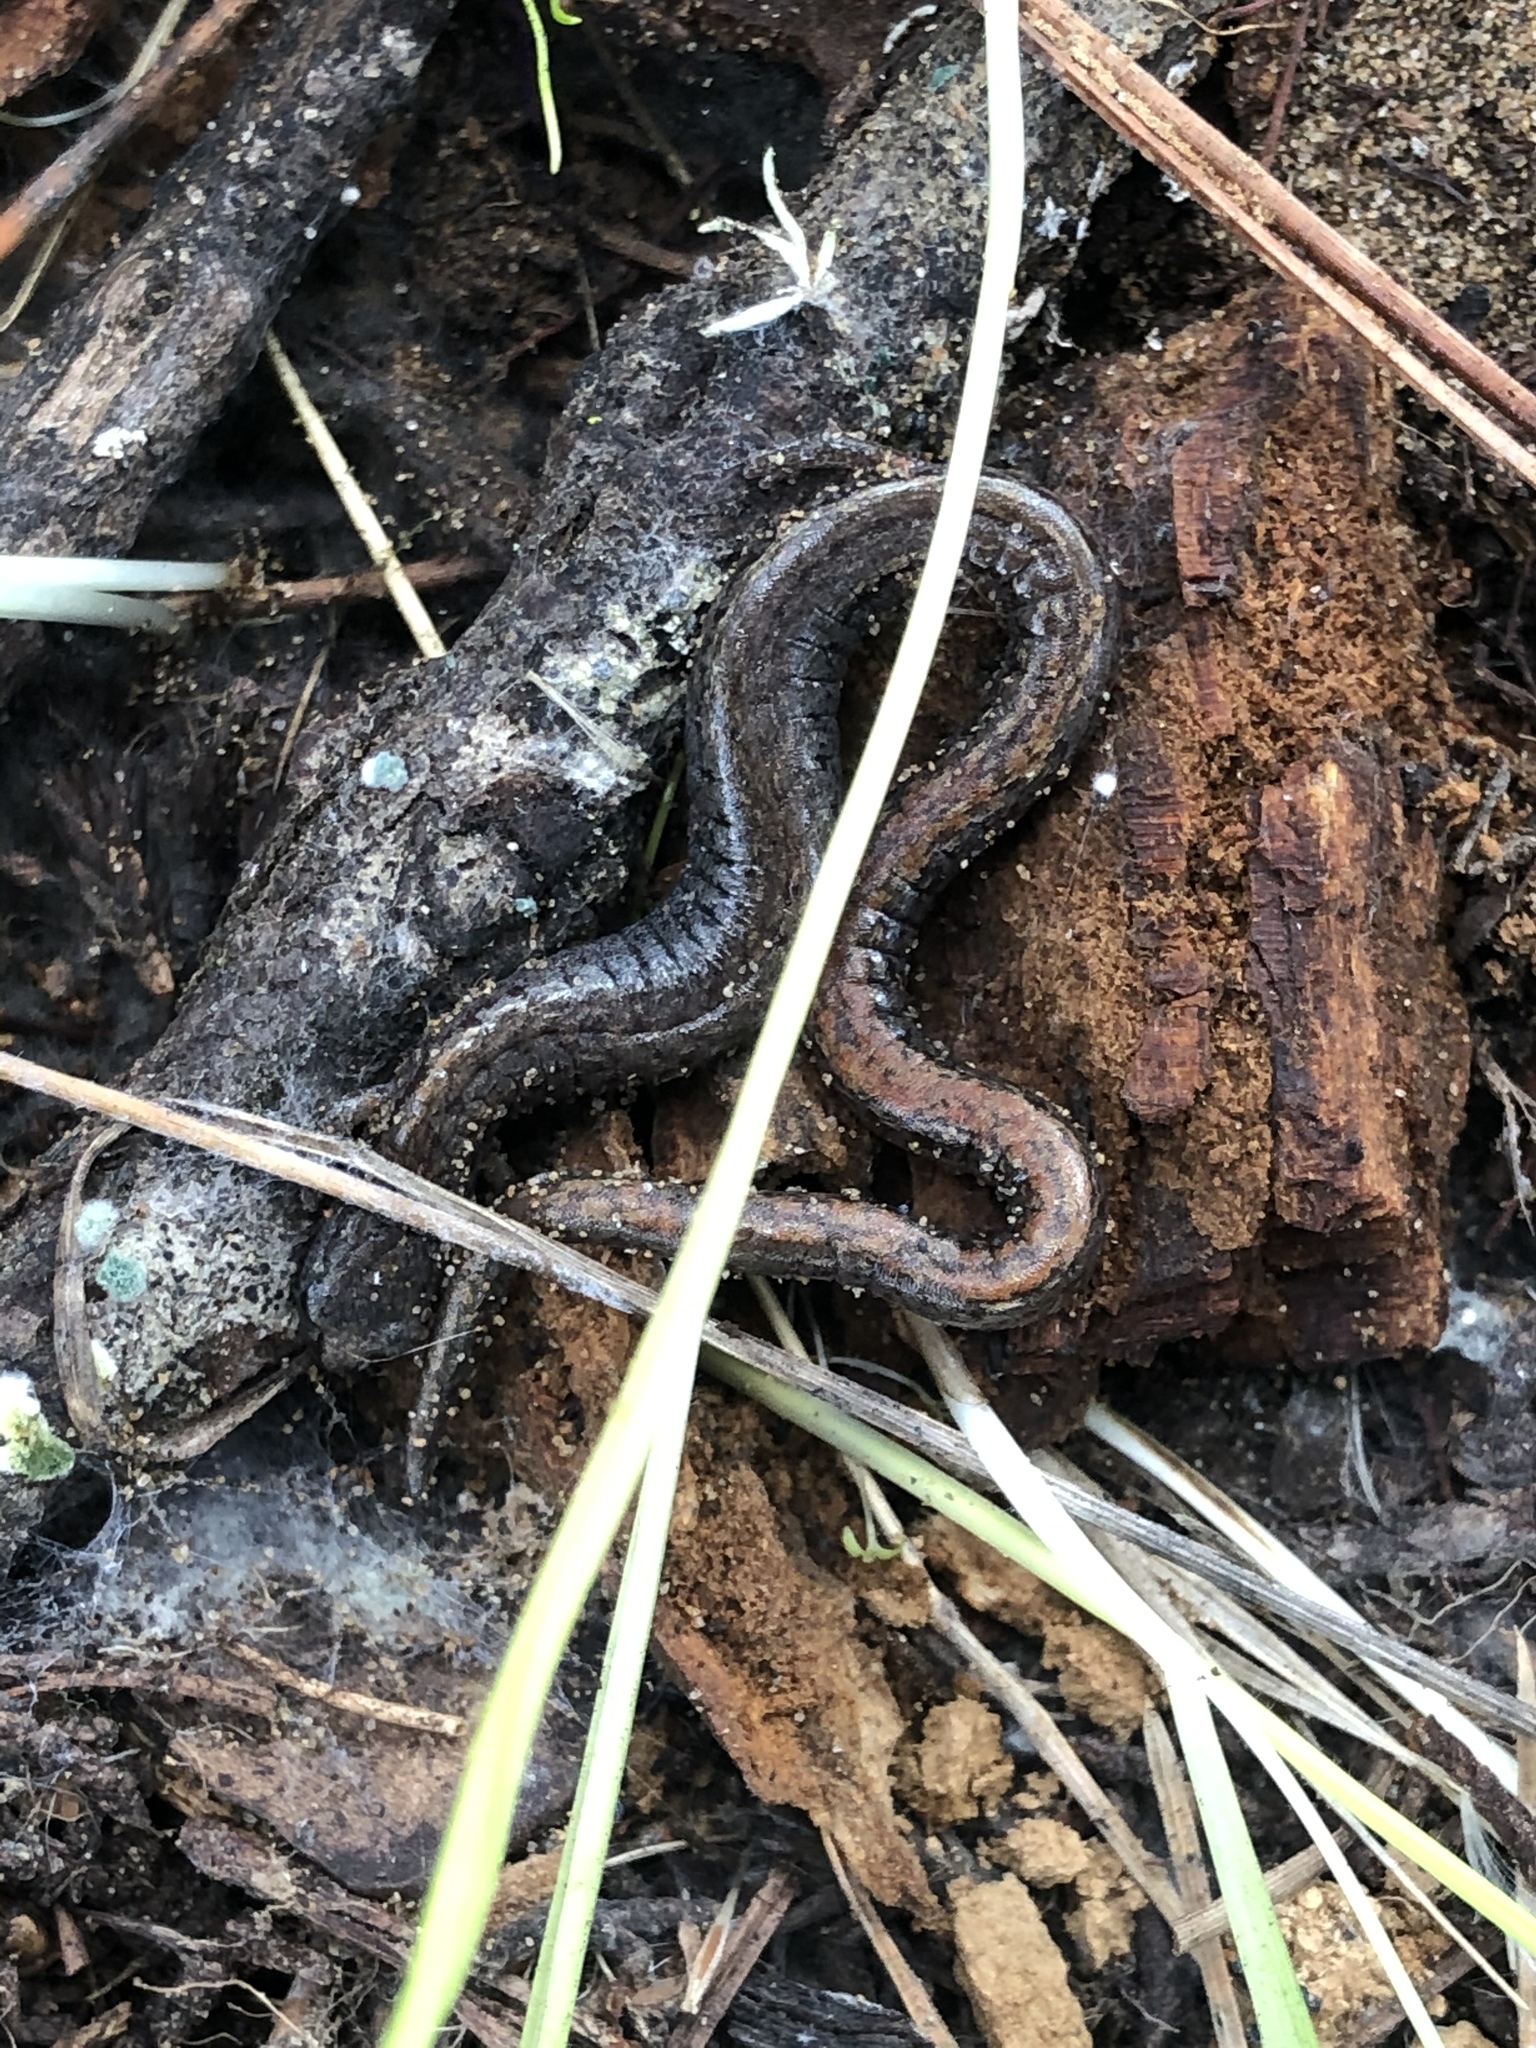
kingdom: Animalia
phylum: Chordata
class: Amphibia
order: Caudata
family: Plethodontidae
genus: Batrachoseps
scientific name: Batrachoseps attenuatus
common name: California slender salamander
